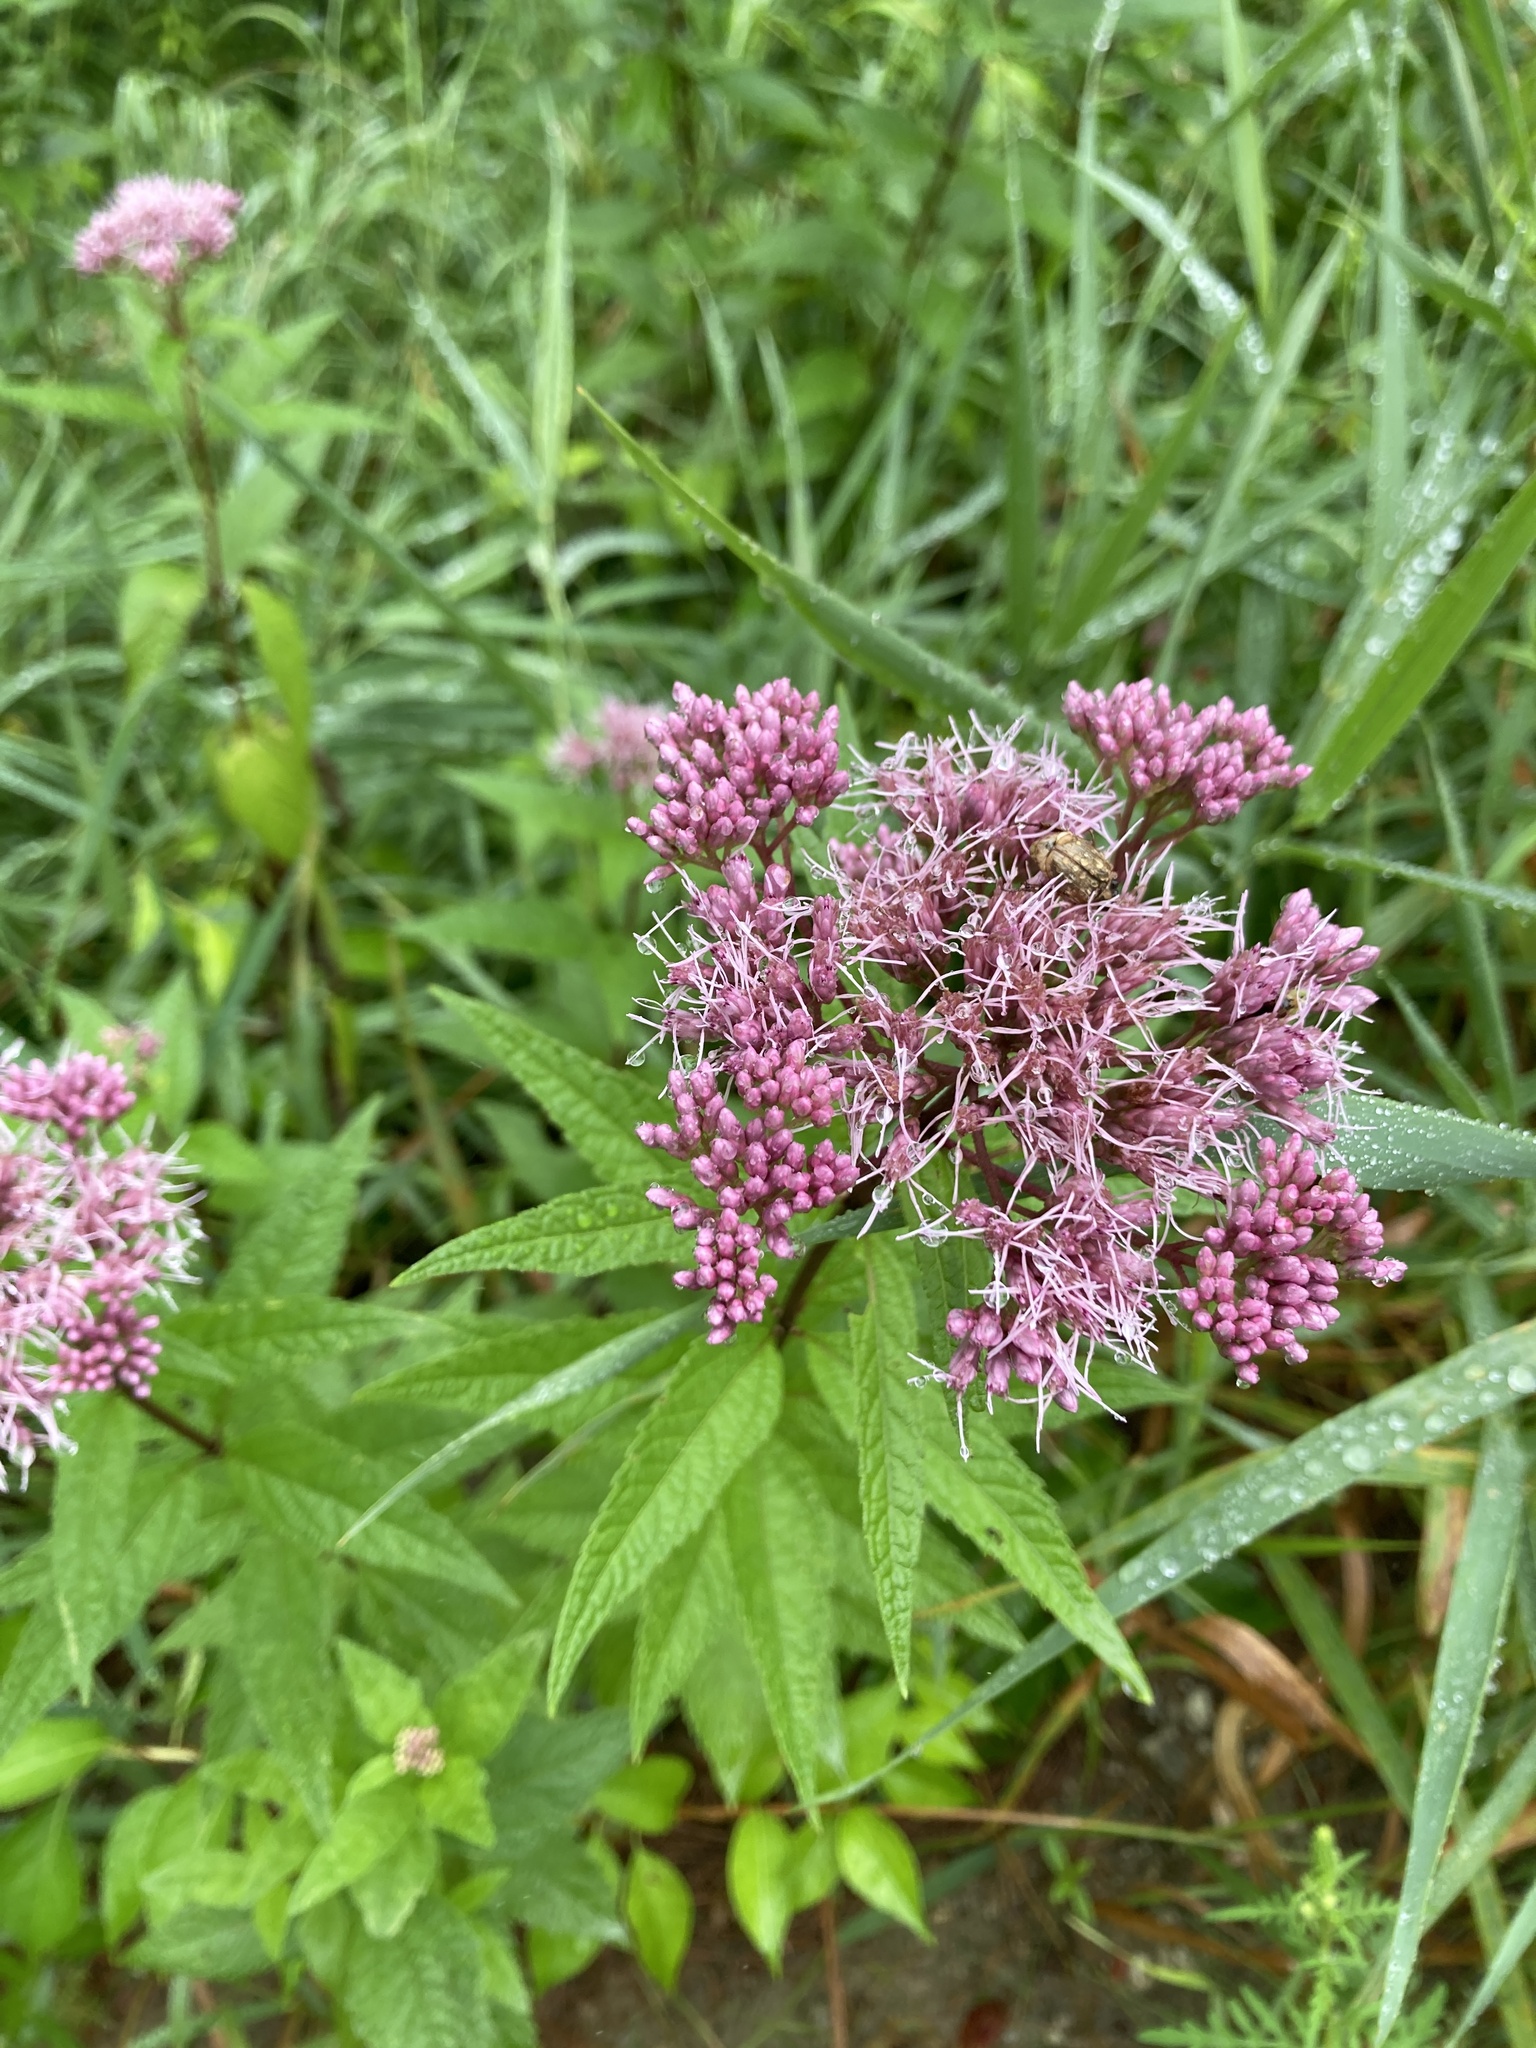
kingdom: Plantae
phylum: Tracheophyta
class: Magnoliopsida
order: Asterales
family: Asteraceae
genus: Eutrochium
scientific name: Eutrochium maculatum
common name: Spotted joe pye weed
